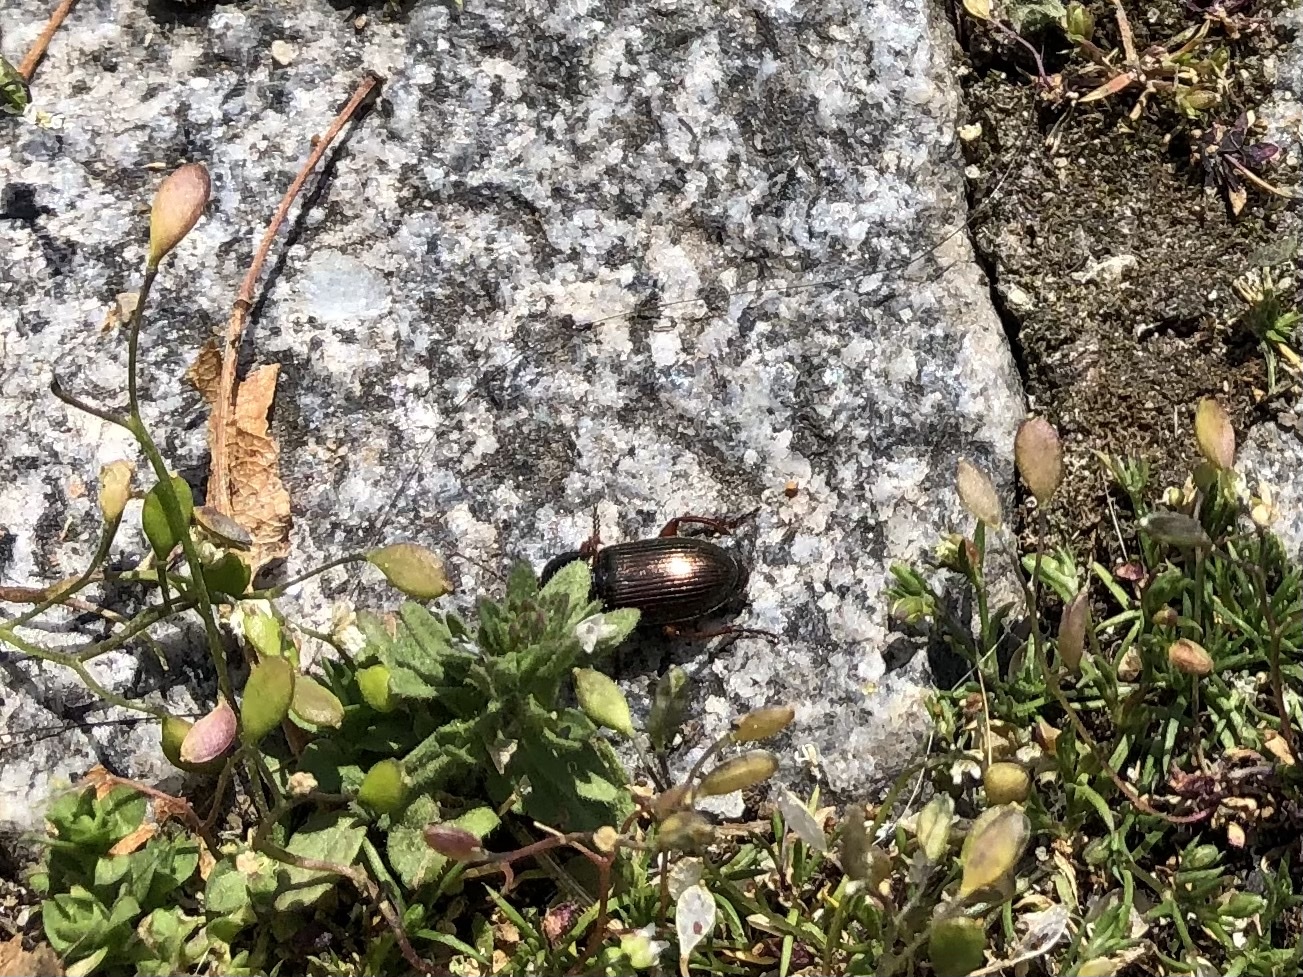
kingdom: Animalia
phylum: Arthropoda
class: Insecta
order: Coleoptera
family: Carabidae
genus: Harpalus
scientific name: Harpalus affinis
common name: Polychrome harp ground beetle
